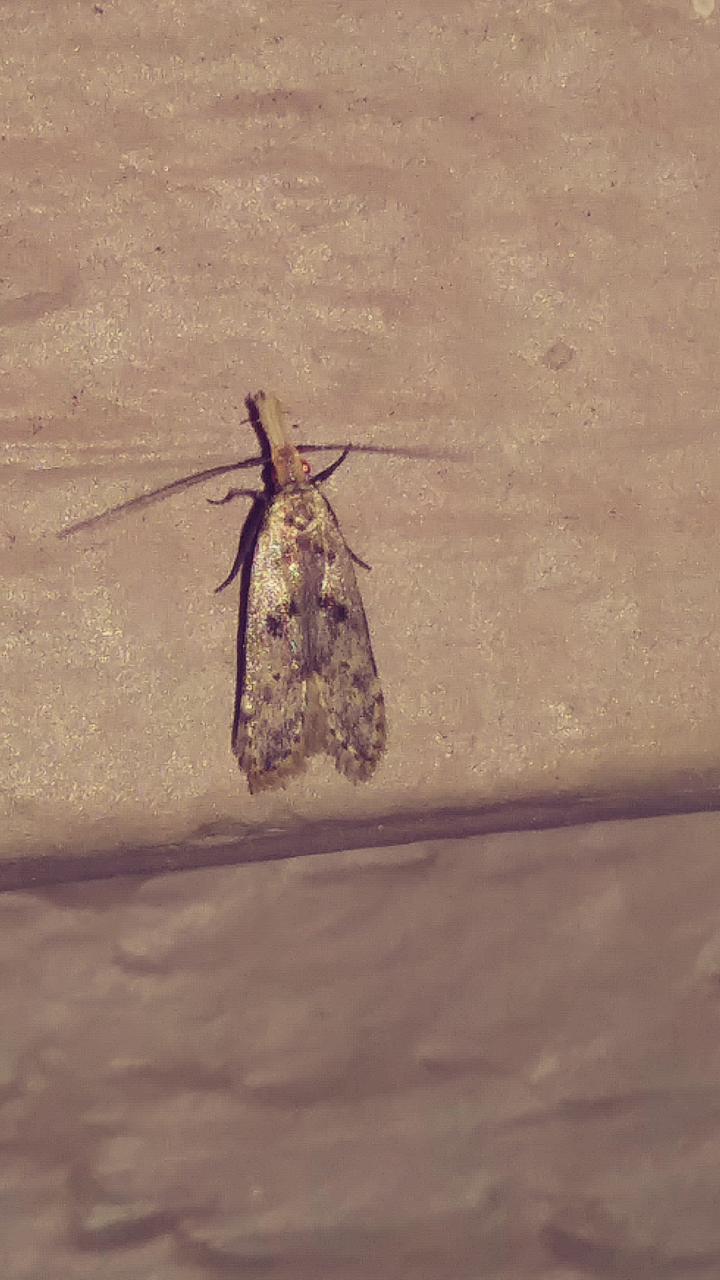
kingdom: Animalia
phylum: Arthropoda
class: Insecta
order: Lepidoptera
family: Gelechiidae
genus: Dichomeris
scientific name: Dichomeris punctipennella
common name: Many-spotted dichomeris moth
